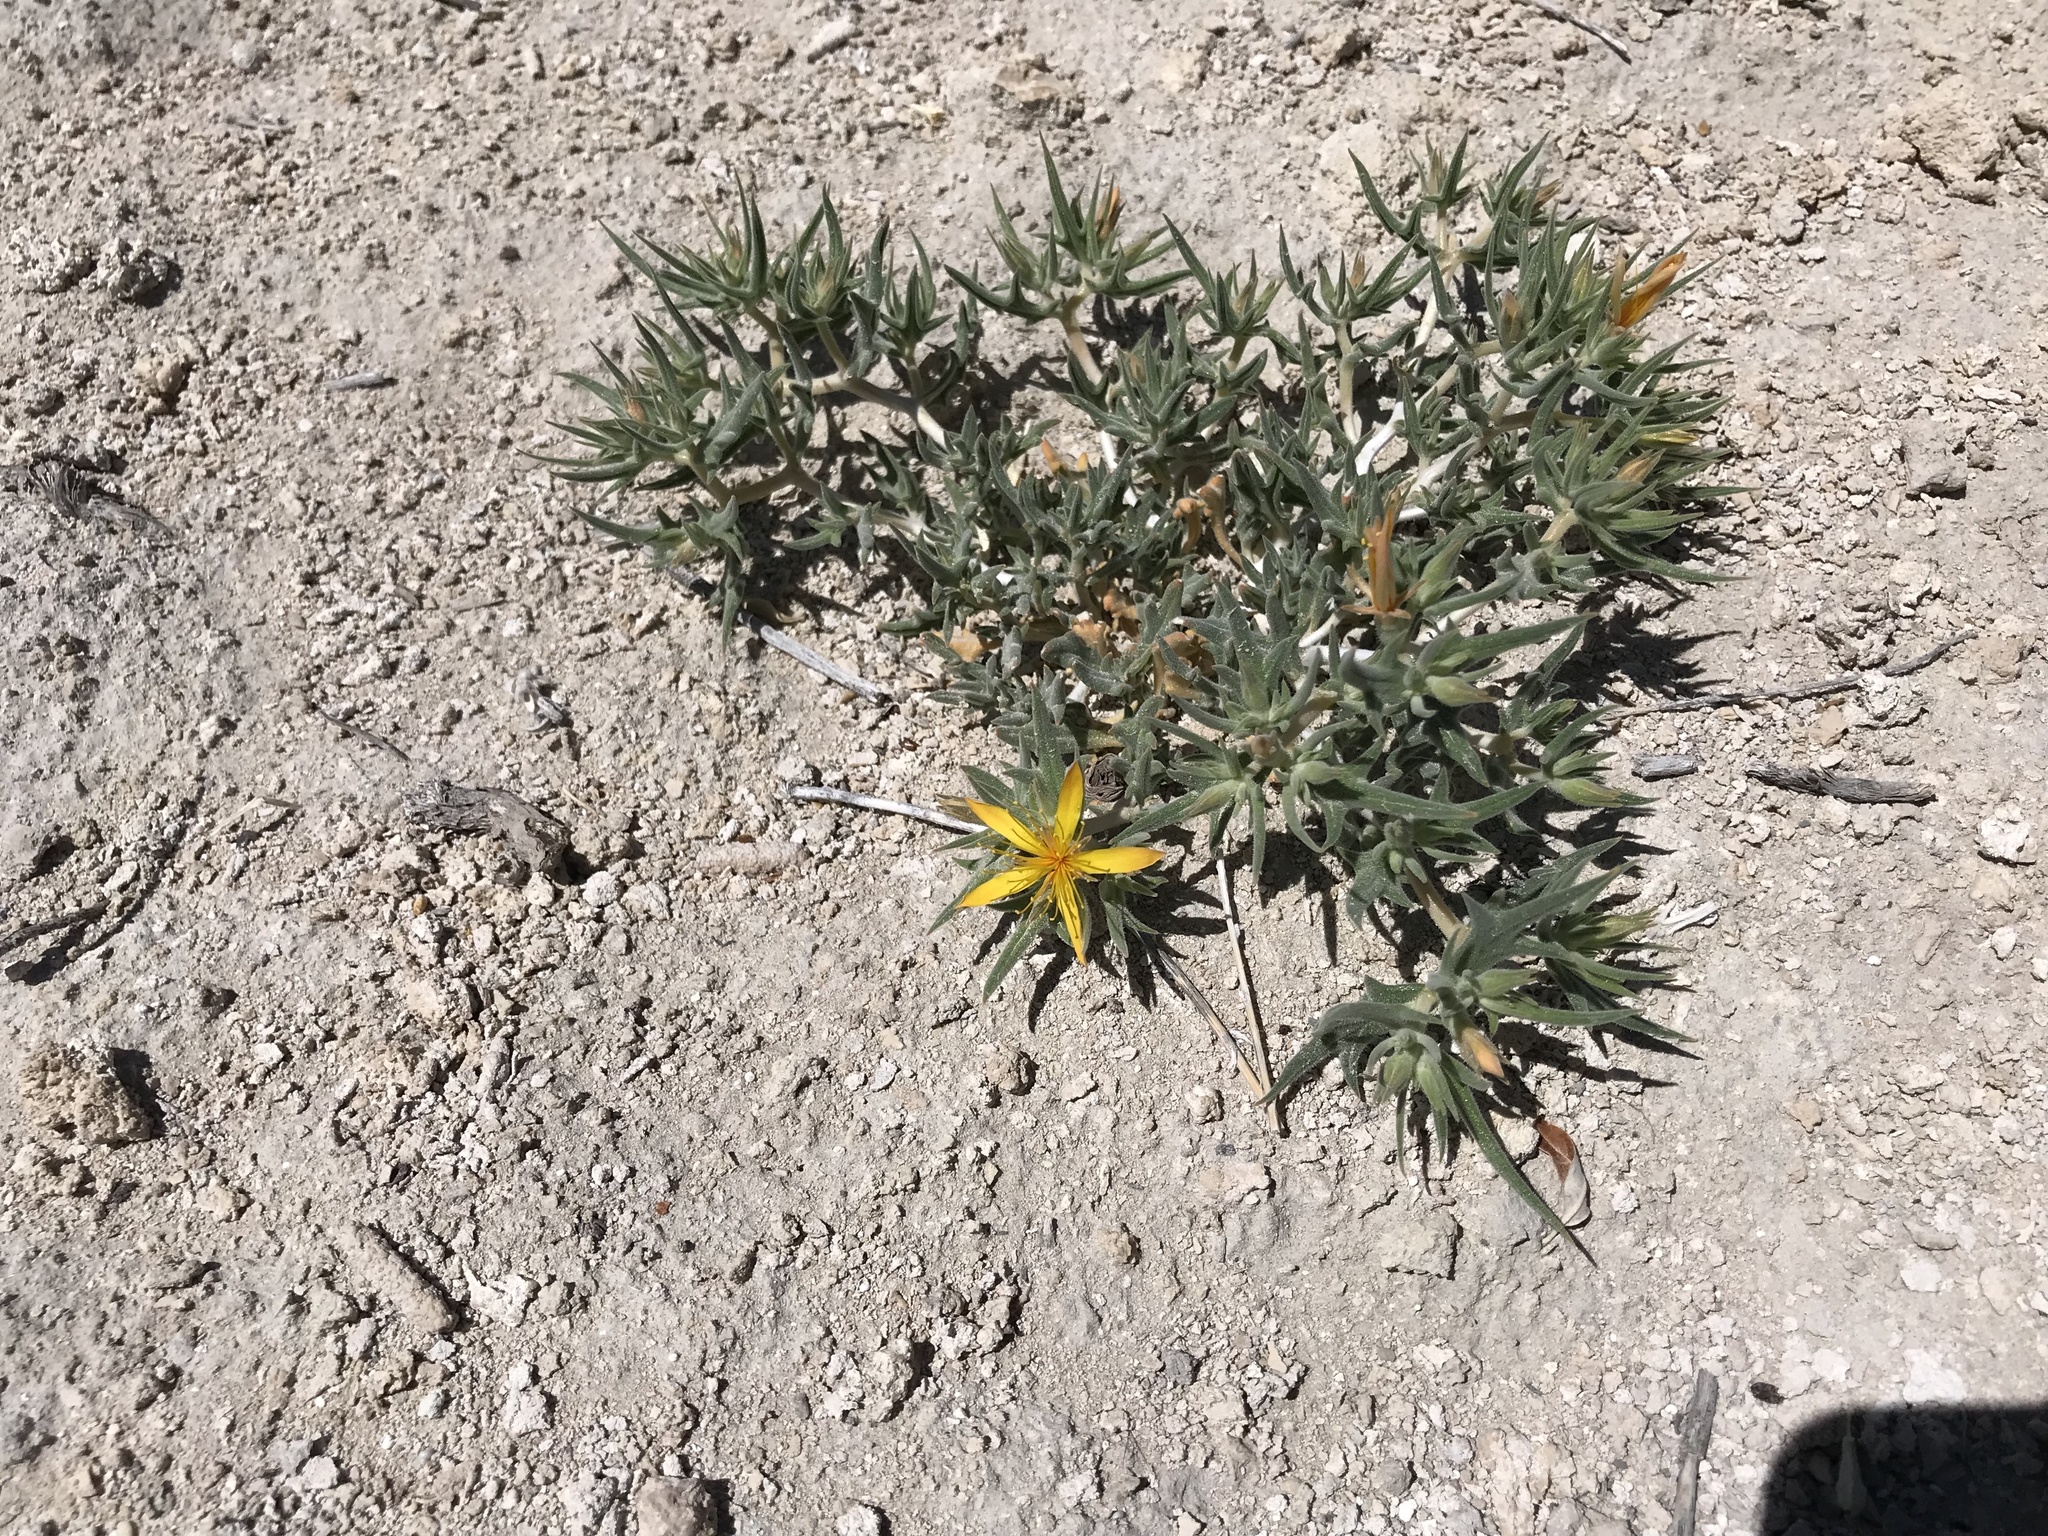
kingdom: Plantae
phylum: Tracheophyta
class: Magnoliopsida
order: Cornales
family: Loasaceae
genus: Mentzelia
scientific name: Mentzelia torreyi
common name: Torrey's blazingstar
